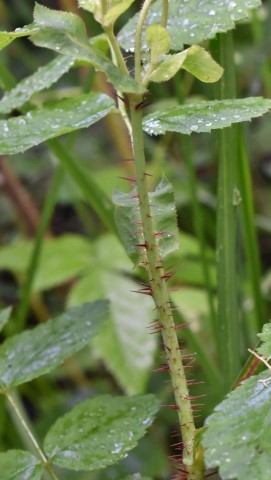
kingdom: Plantae
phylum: Tracheophyta
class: Magnoliopsida
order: Rosales
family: Rosaceae
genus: Rosa
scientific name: Rosa gymnocarpa
